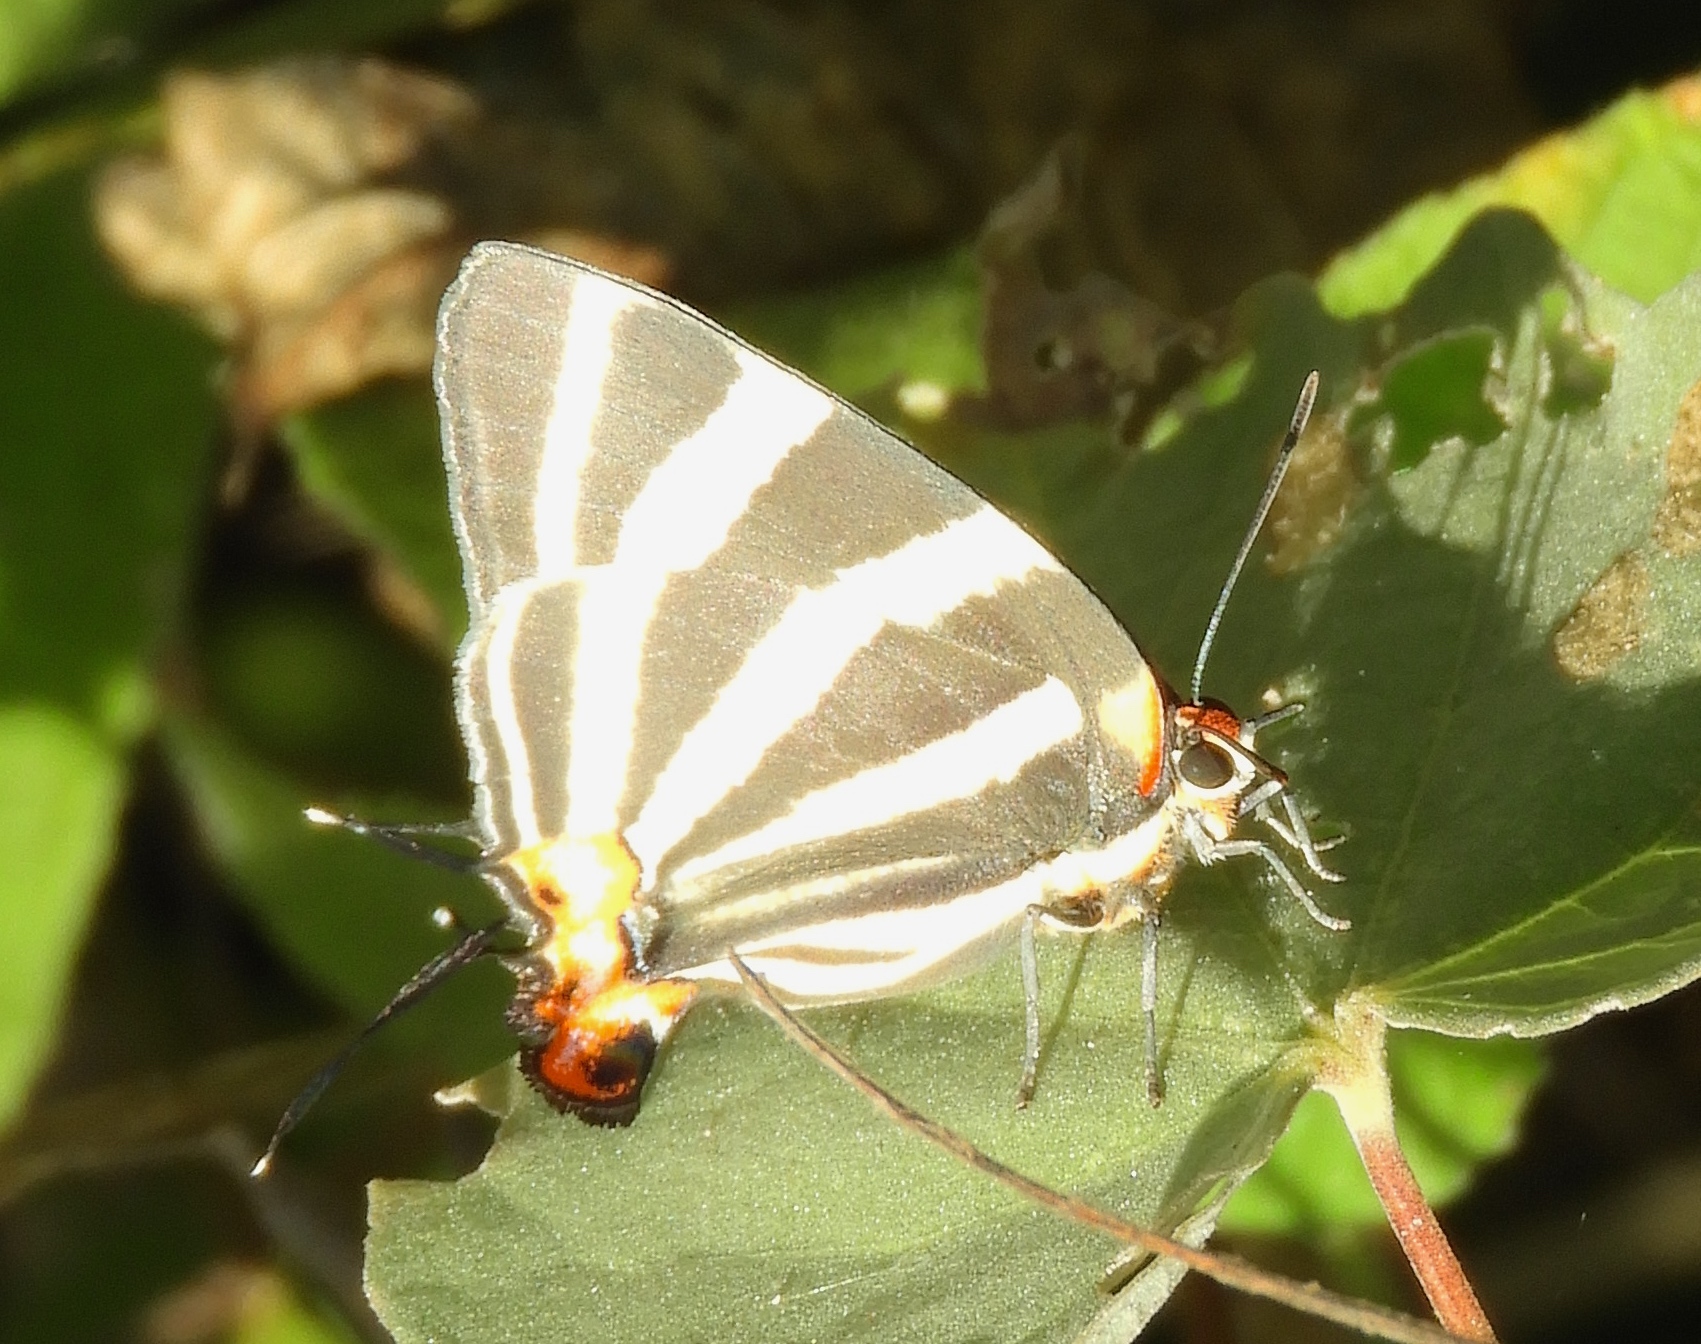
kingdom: Animalia
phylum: Arthropoda
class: Insecta
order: Lepidoptera
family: Lycaenidae
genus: Thecla
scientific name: Thecla bathildis
